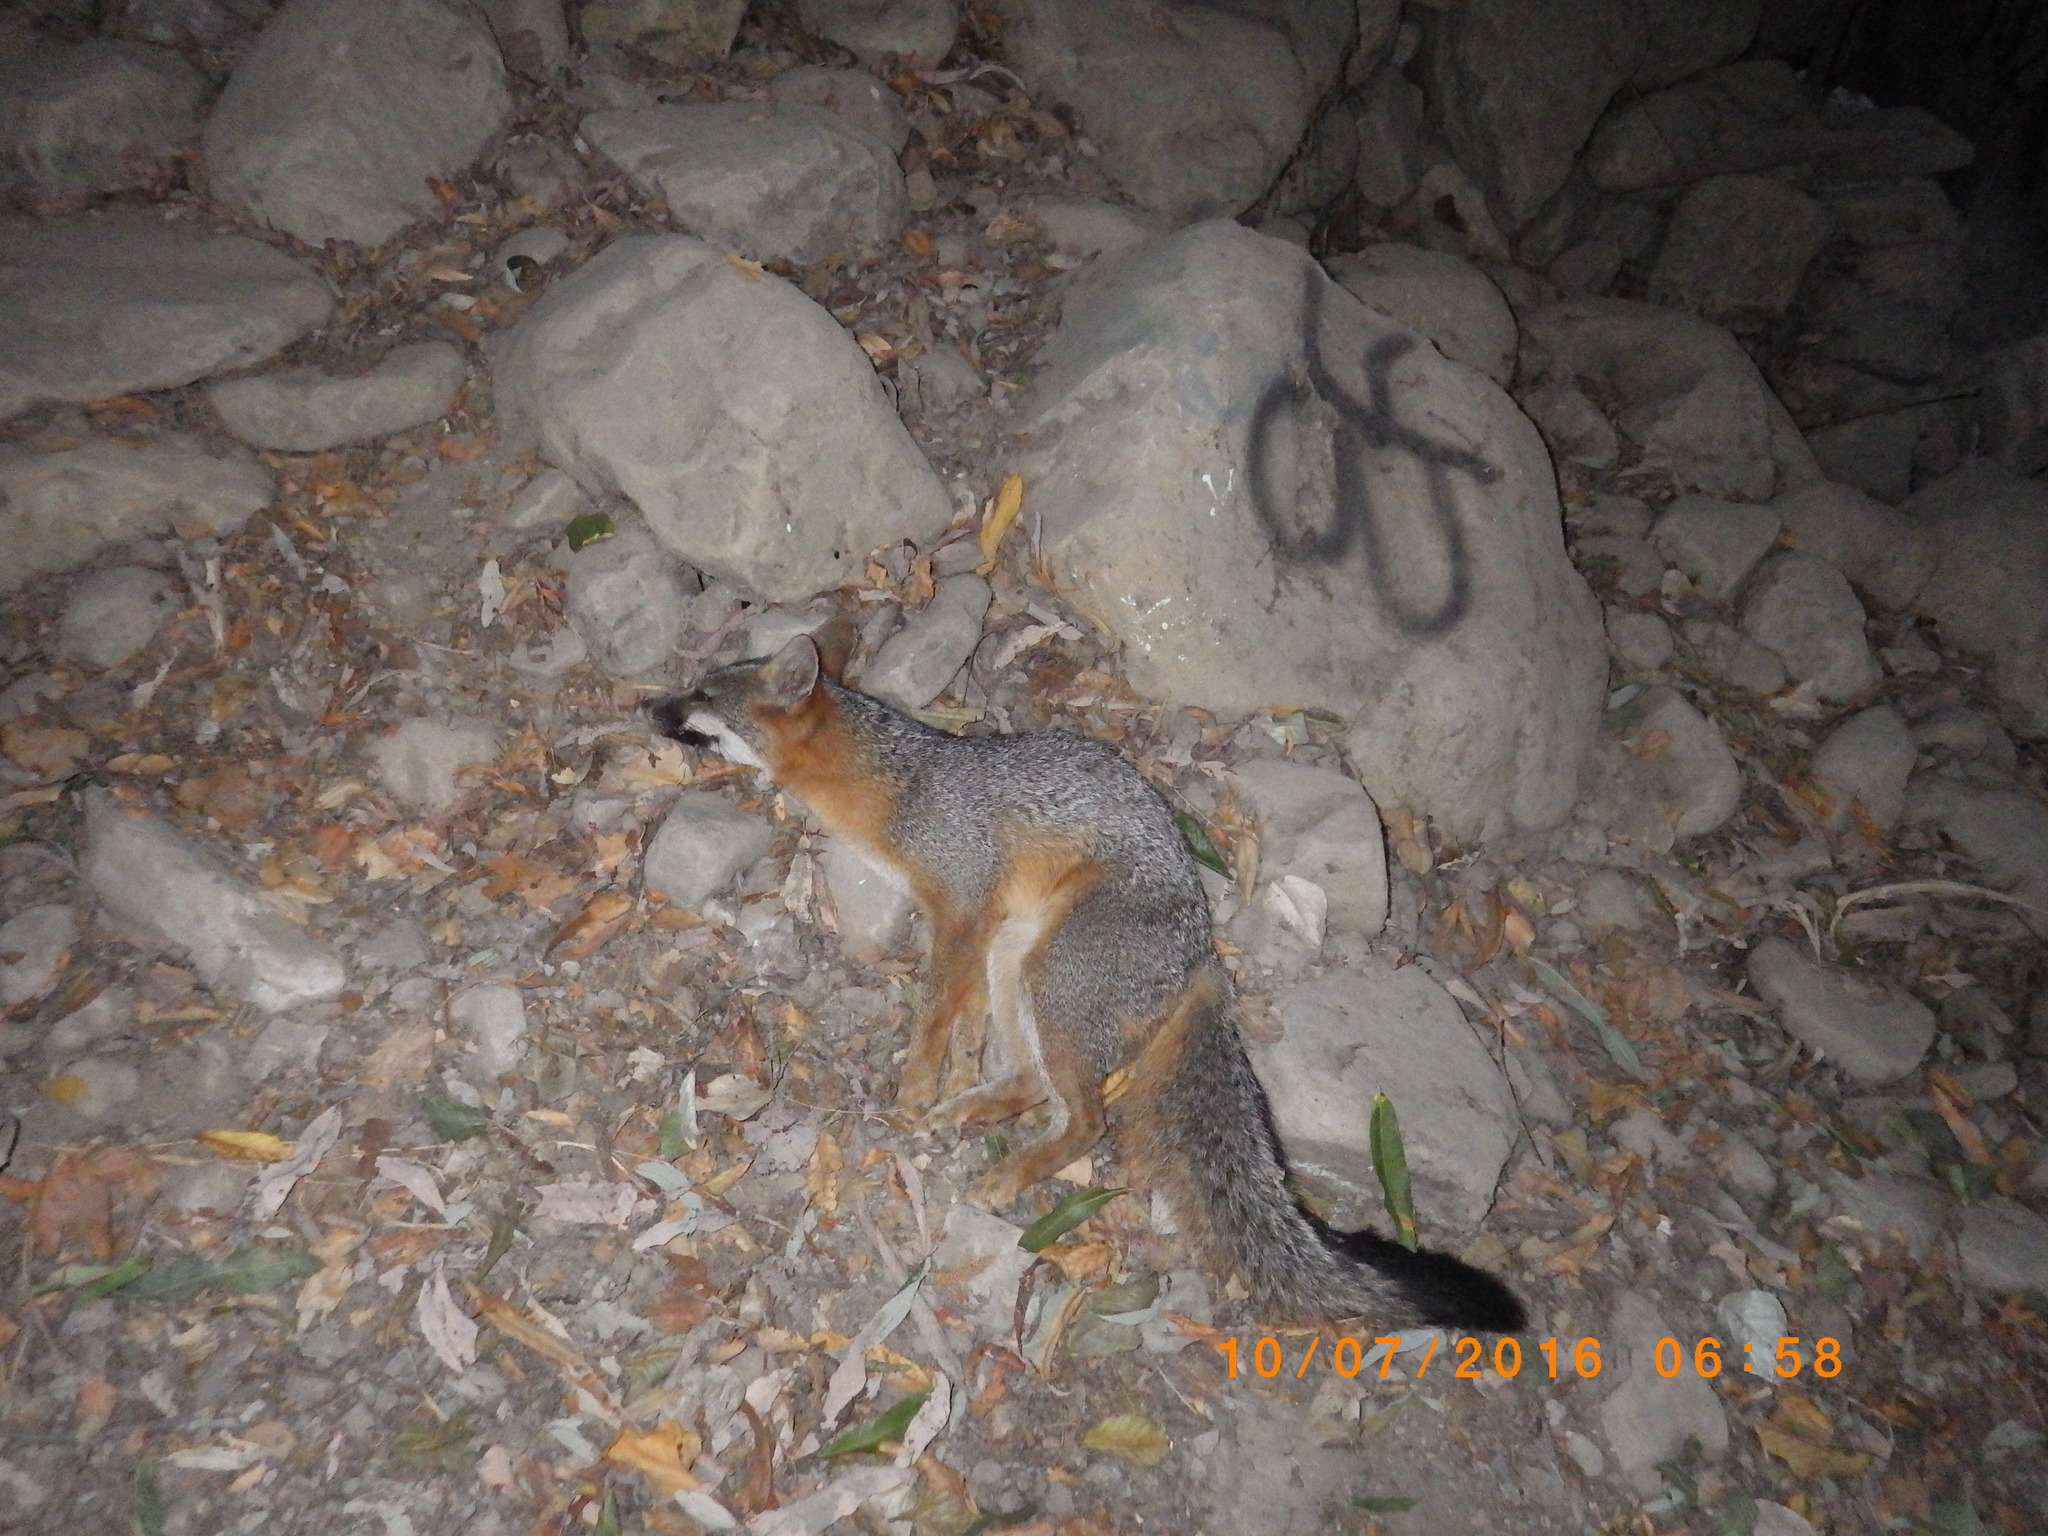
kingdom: Animalia
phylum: Chordata
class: Mammalia
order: Carnivora
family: Canidae
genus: Urocyon
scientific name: Urocyon cinereoargenteus
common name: Gray fox
